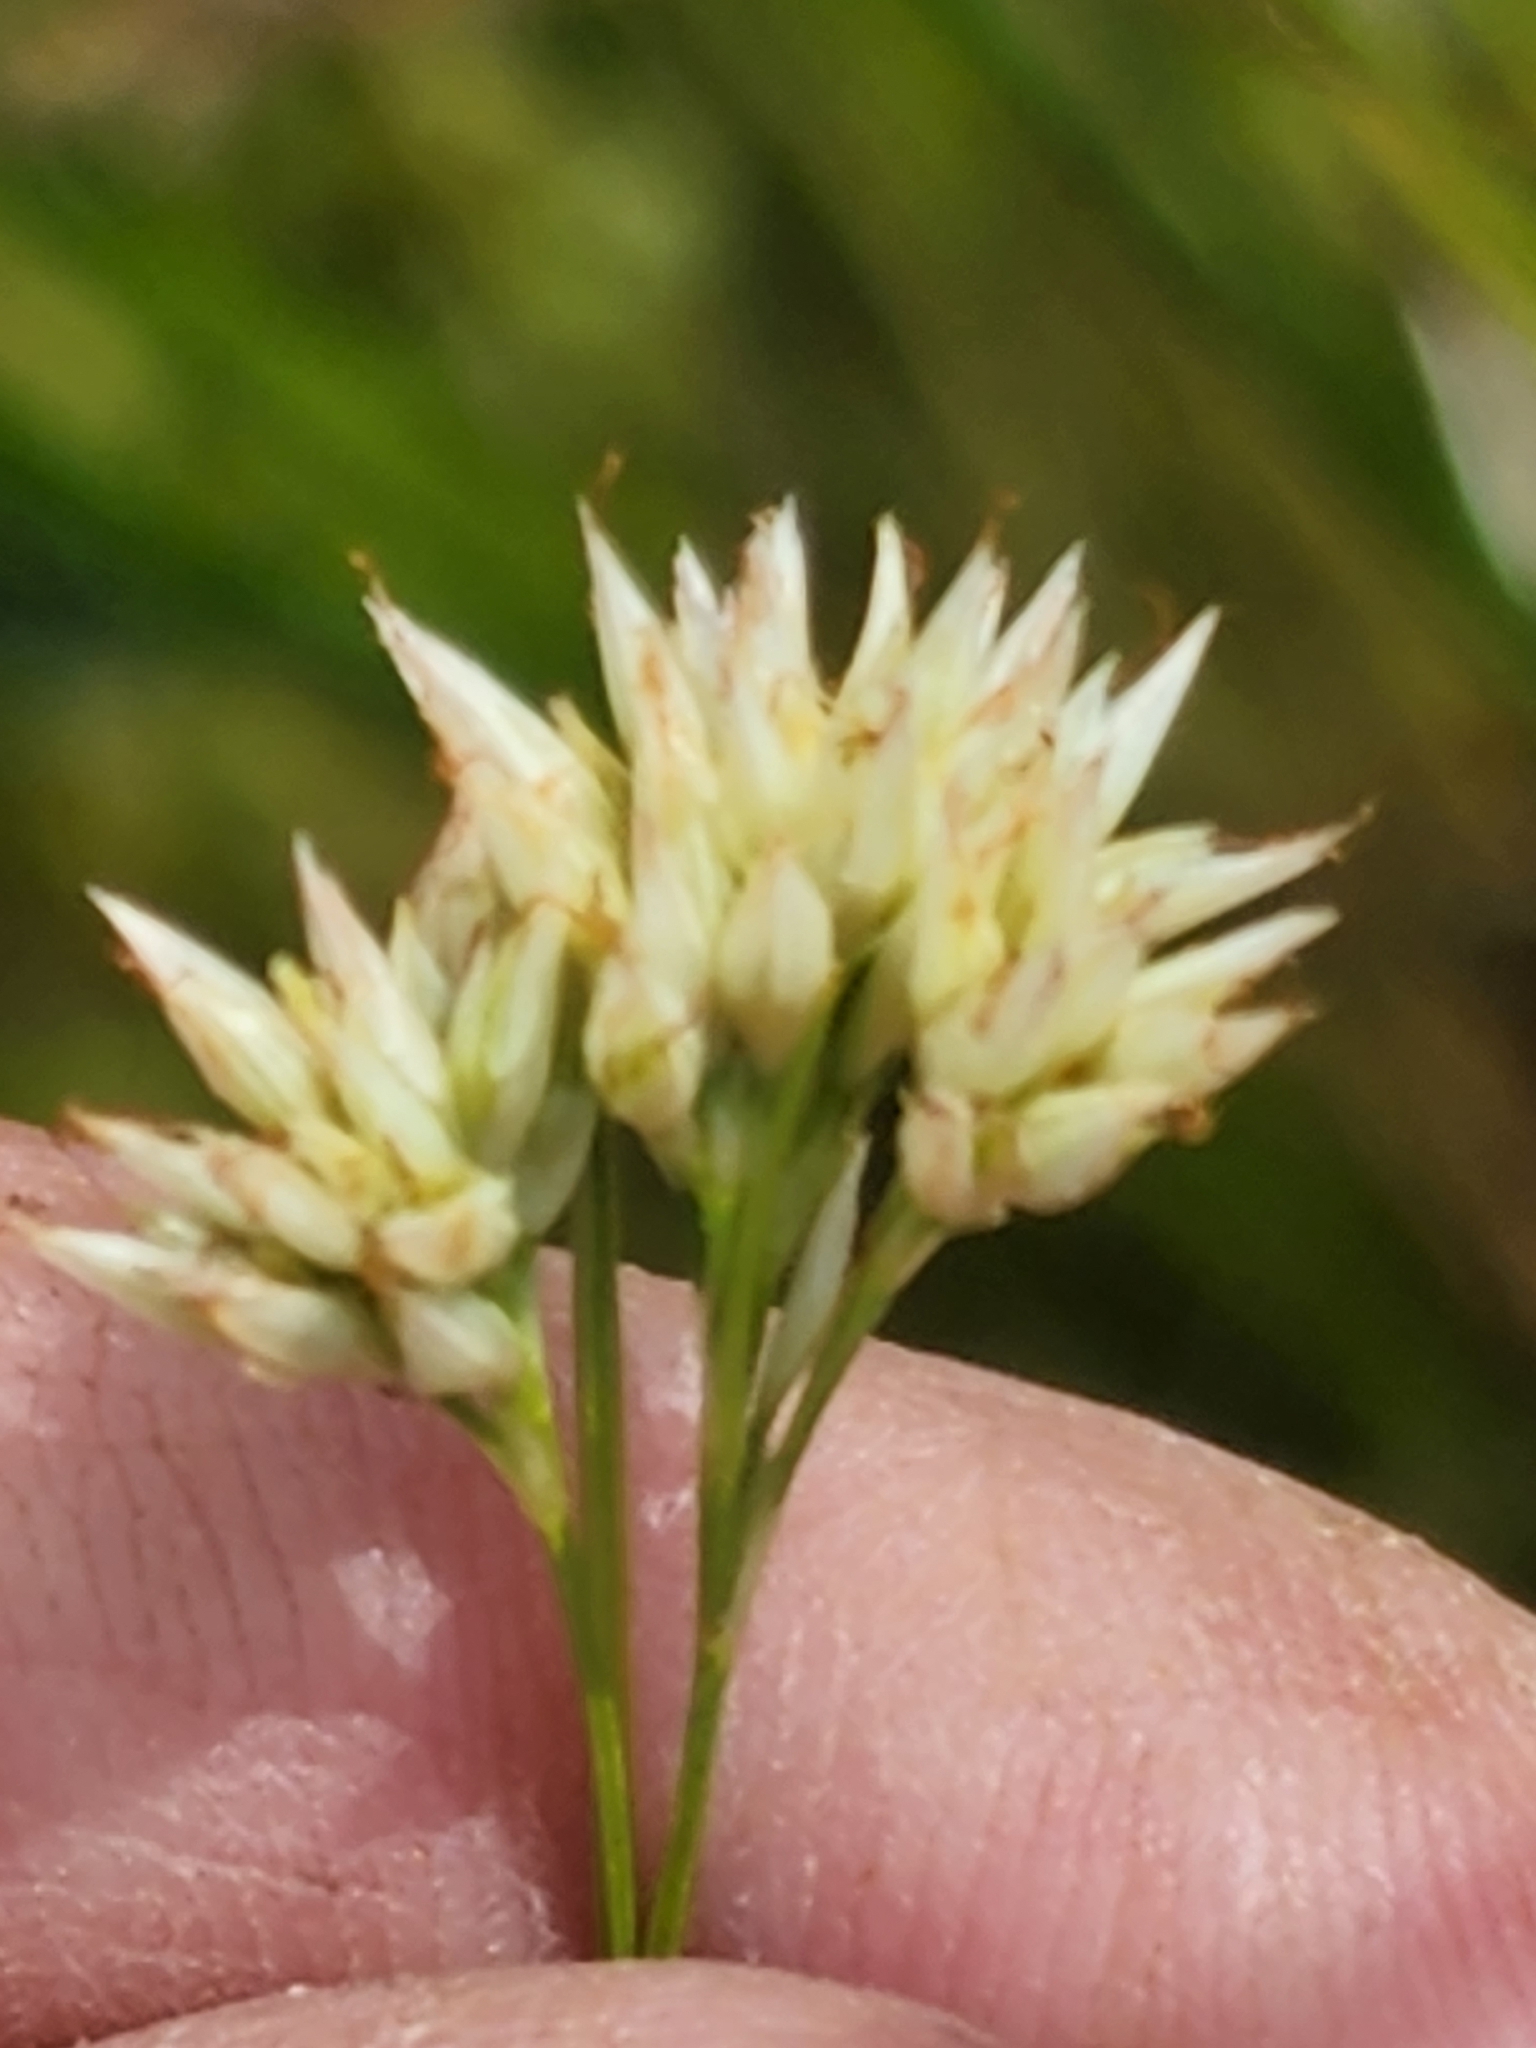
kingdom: Plantae
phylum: Tracheophyta
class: Liliopsida
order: Poales
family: Cyperaceae
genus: Rhynchospora
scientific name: Rhynchospora alba
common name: White beak-sedge
